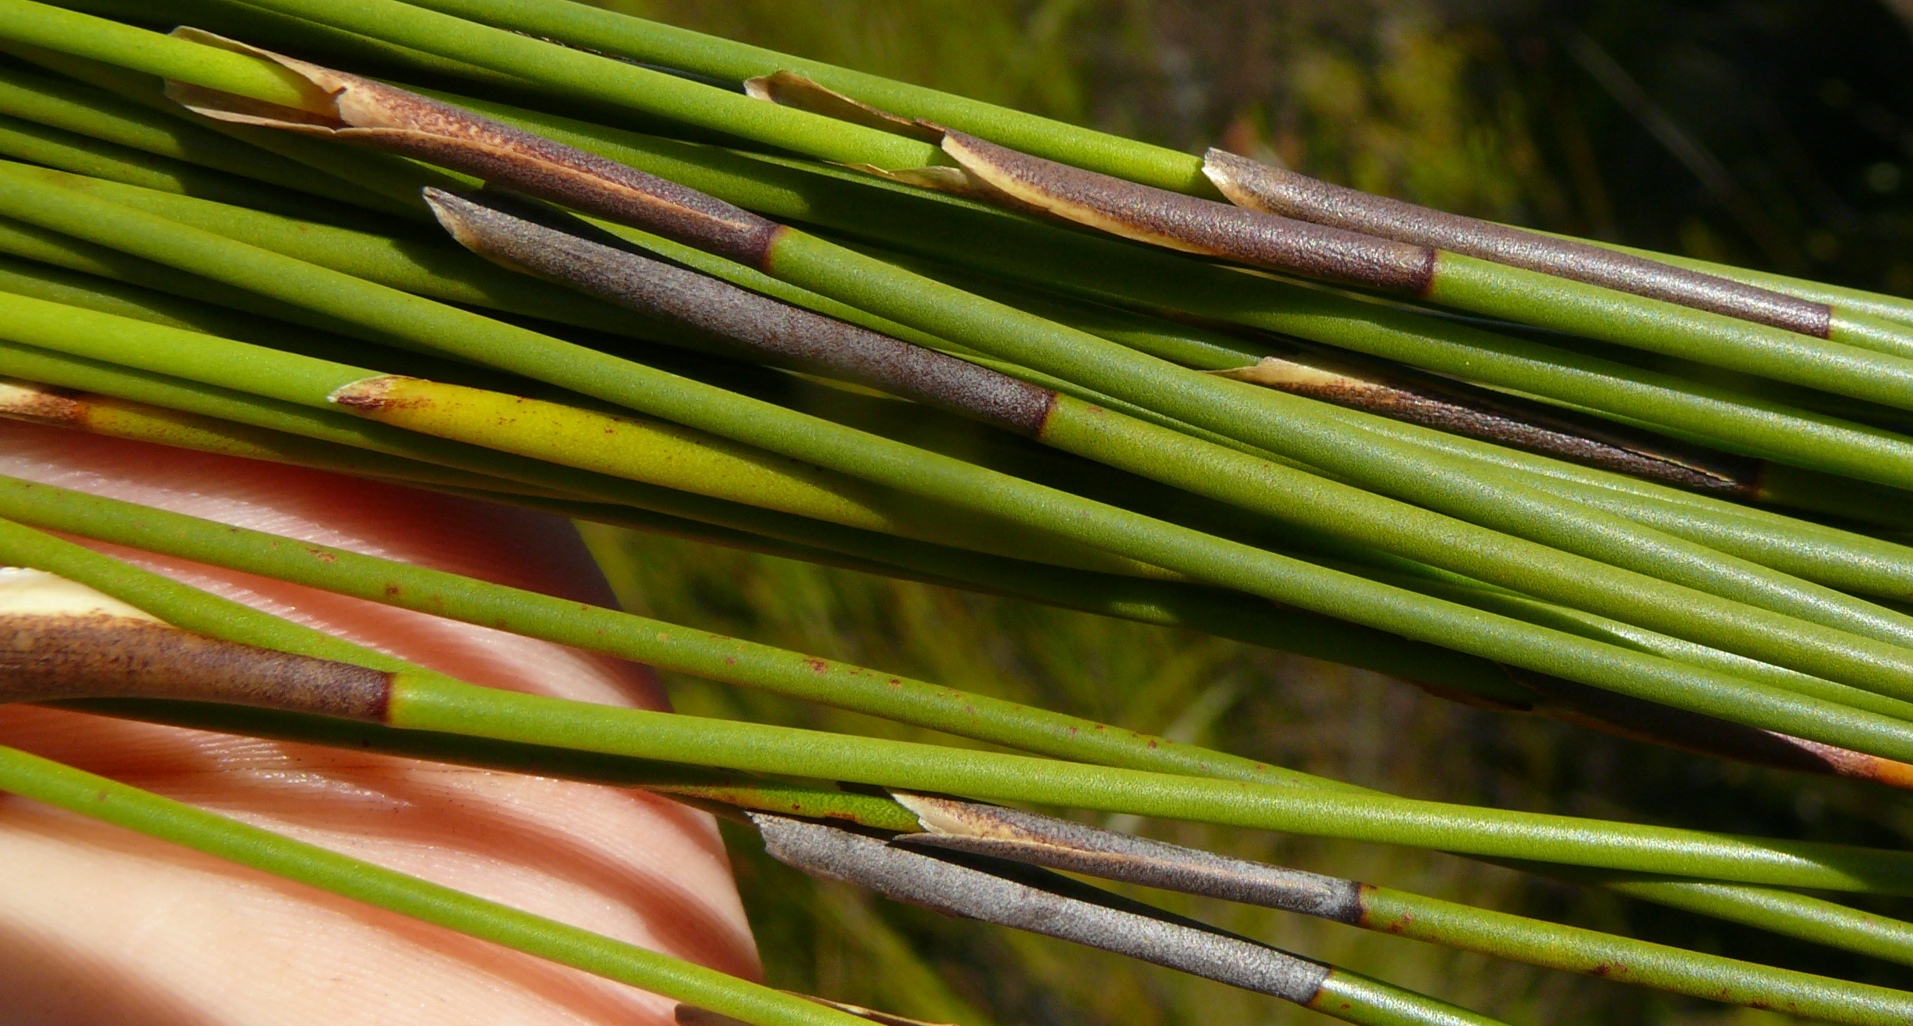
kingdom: Plantae
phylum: Tracheophyta
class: Liliopsida
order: Poales
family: Restionaceae
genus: Hypodiscus
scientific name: Hypodiscus aristatus
